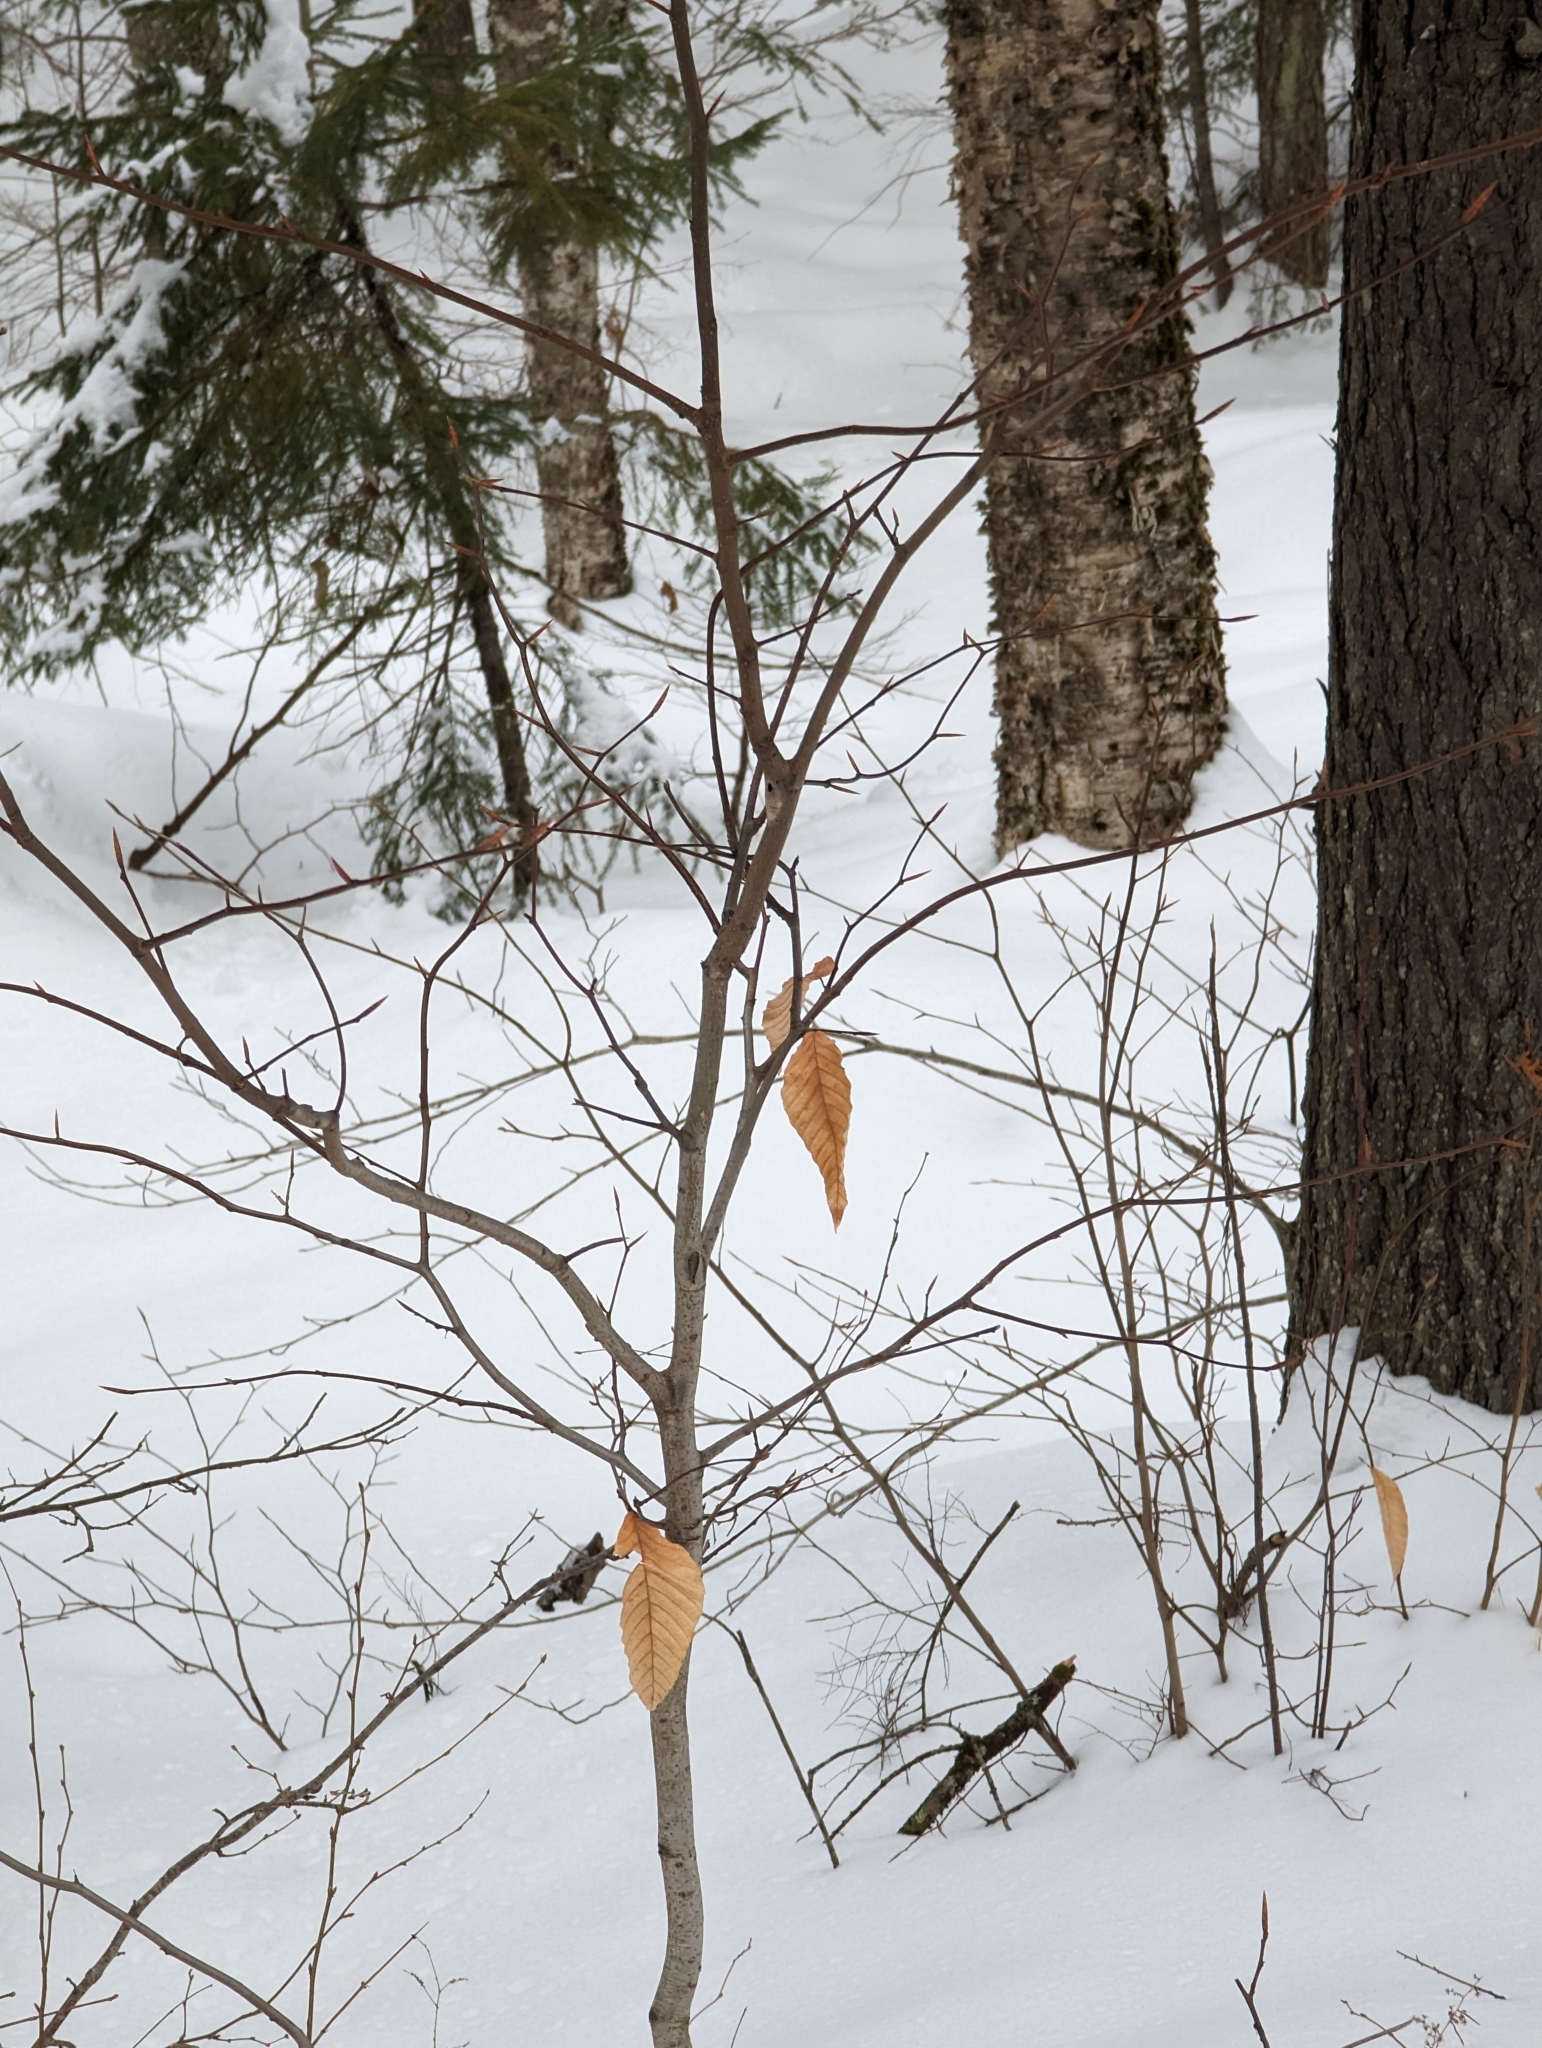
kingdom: Plantae
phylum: Tracheophyta
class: Magnoliopsida
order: Fagales
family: Fagaceae
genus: Fagus
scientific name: Fagus grandifolia
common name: American beech
